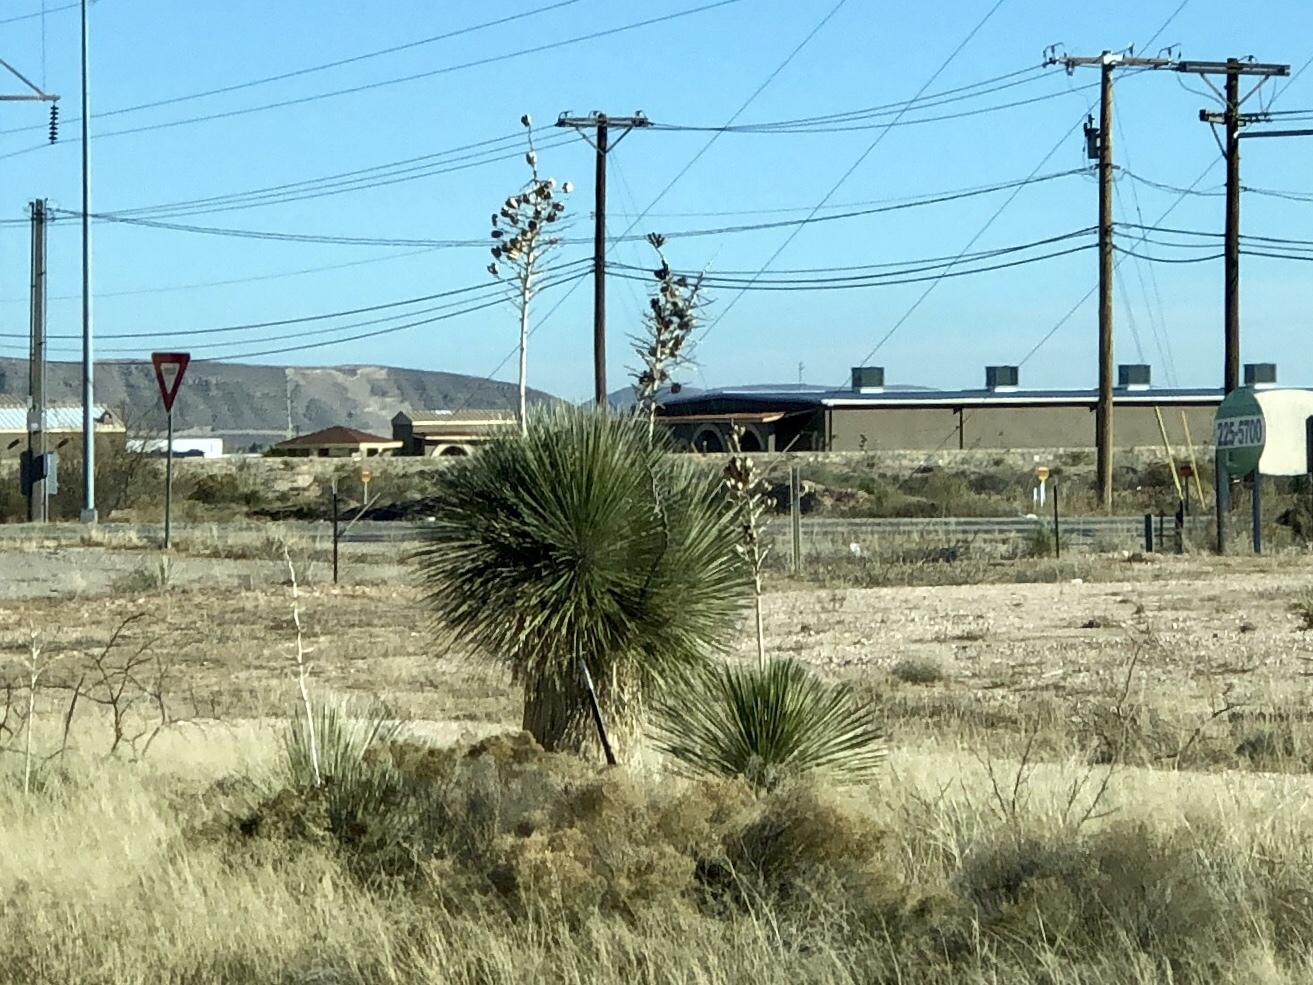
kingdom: Plantae
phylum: Tracheophyta
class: Liliopsida
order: Asparagales
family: Asparagaceae
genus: Yucca
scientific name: Yucca elata
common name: Palmella
